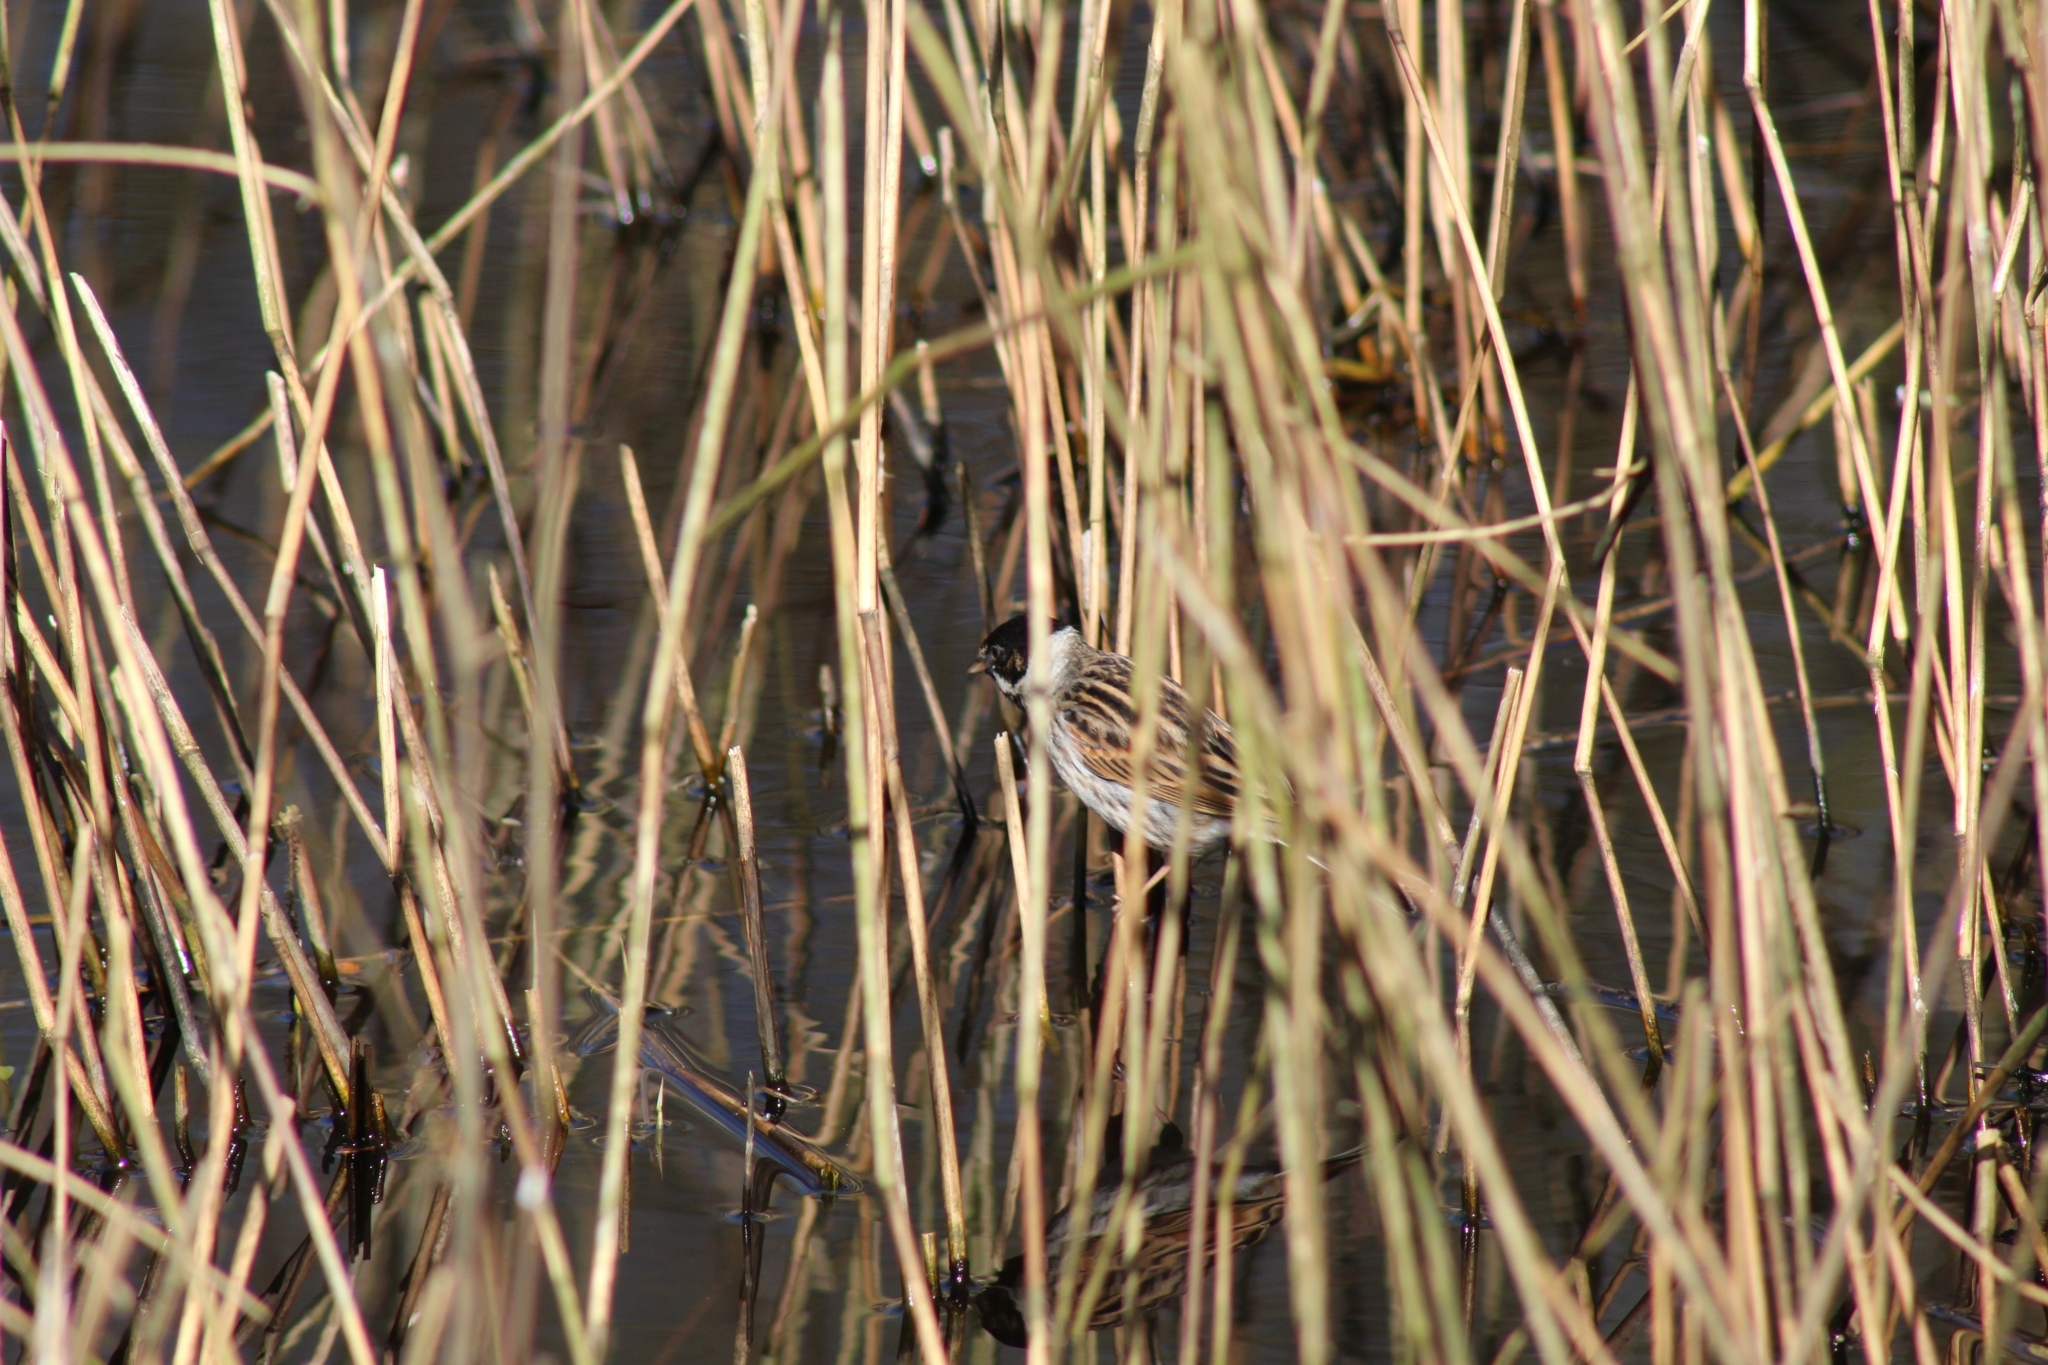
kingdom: Animalia
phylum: Chordata
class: Aves
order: Passeriformes
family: Emberizidae
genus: Emberiza
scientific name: Emberiza schoeniclus
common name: Reed bunting
